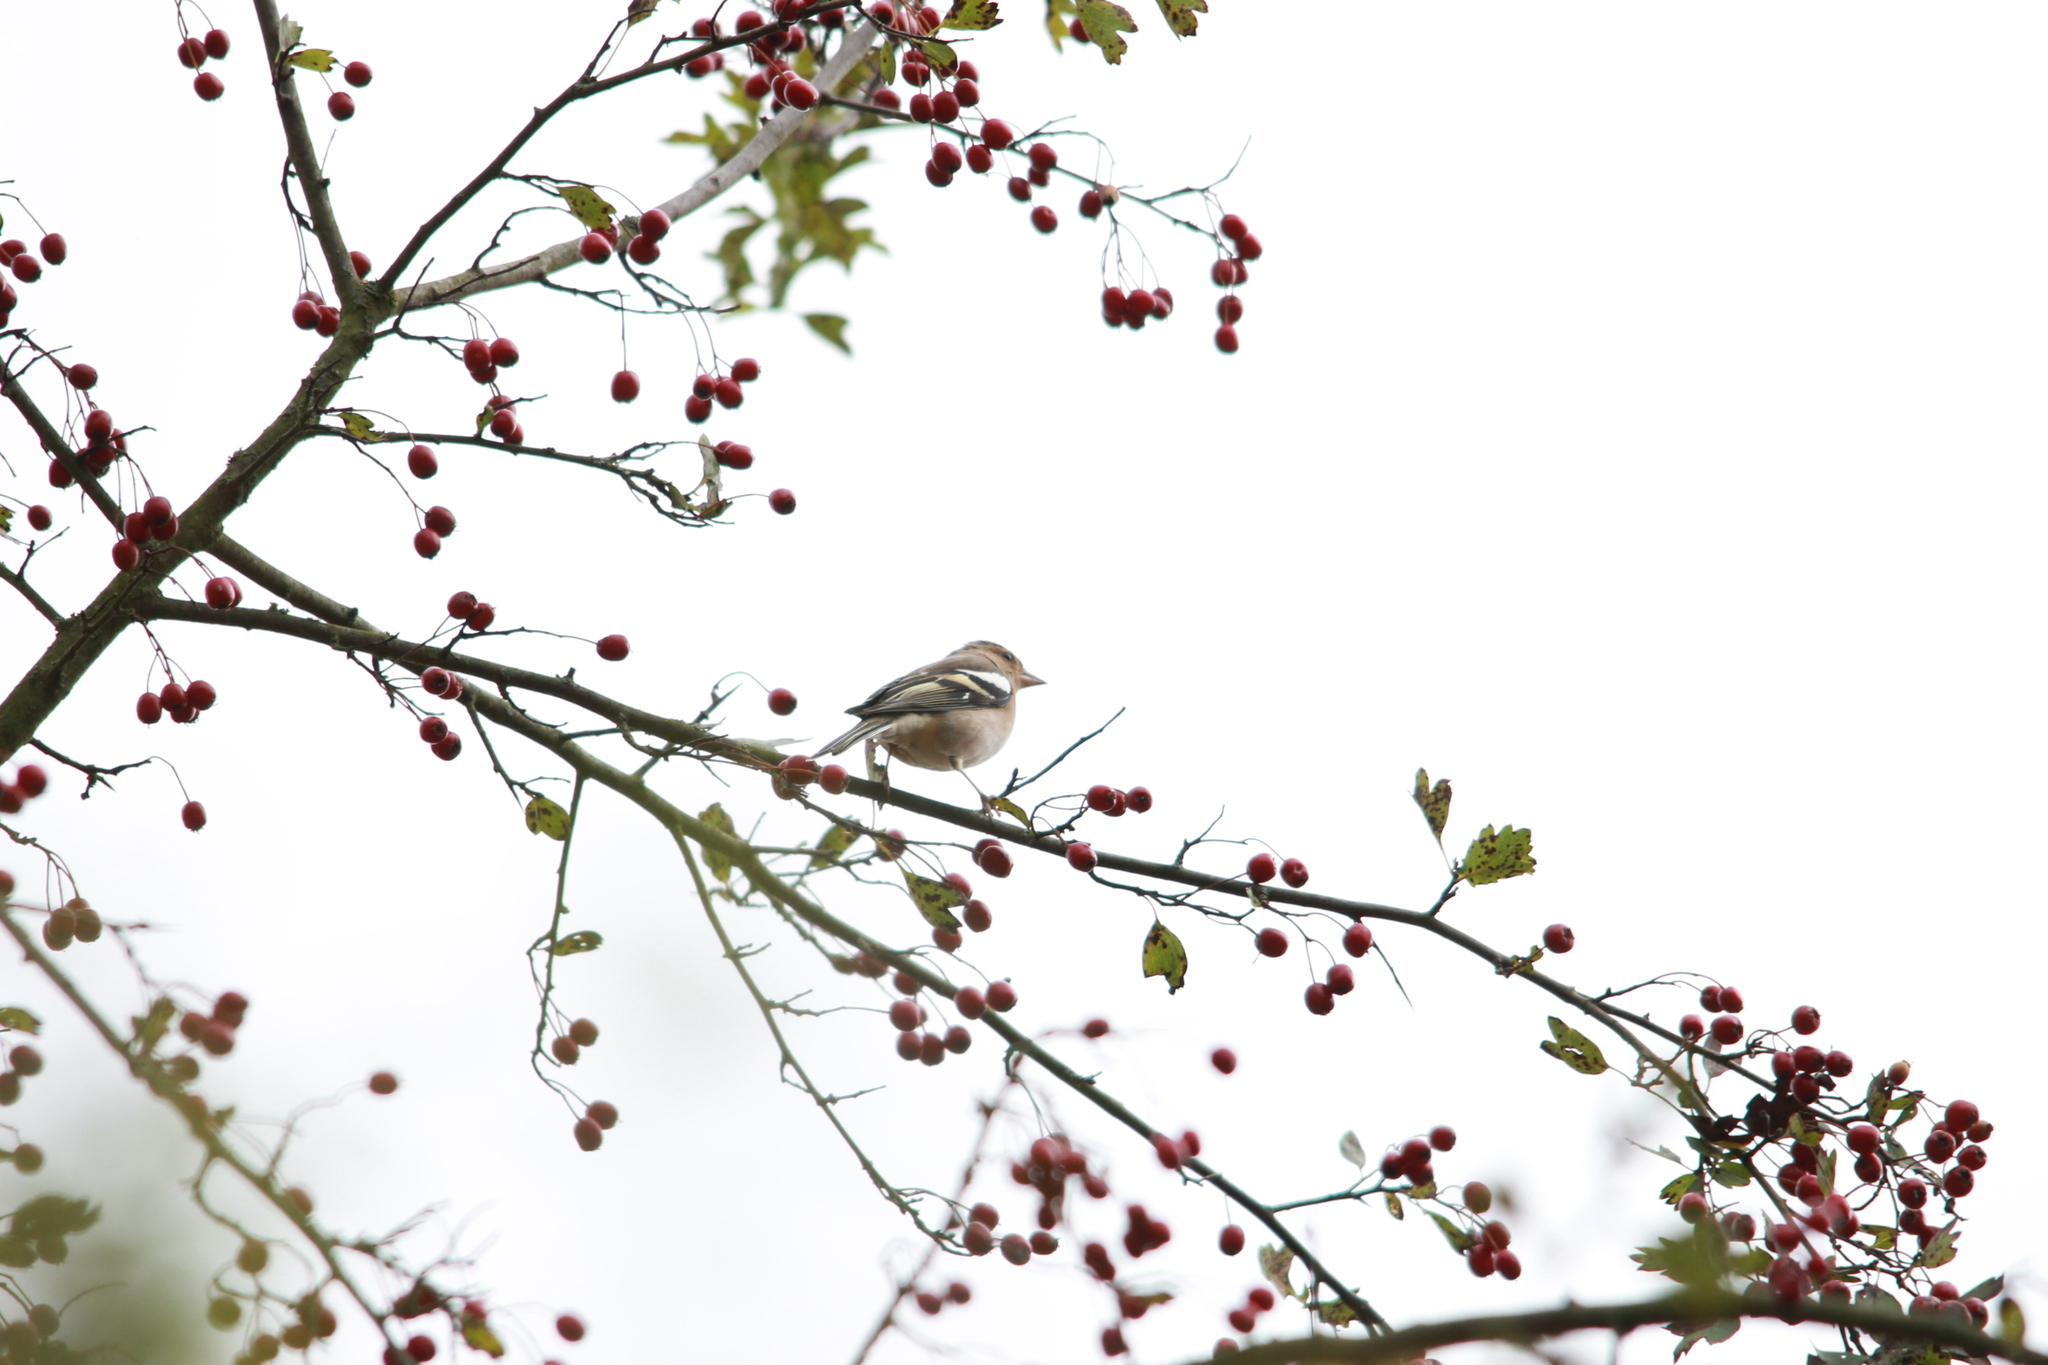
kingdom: Animalia
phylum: Chordata
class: Aves
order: Passeriformes
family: Fringillidae
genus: Fringilla
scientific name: Fringilla coelebs
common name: Common chaffinch
